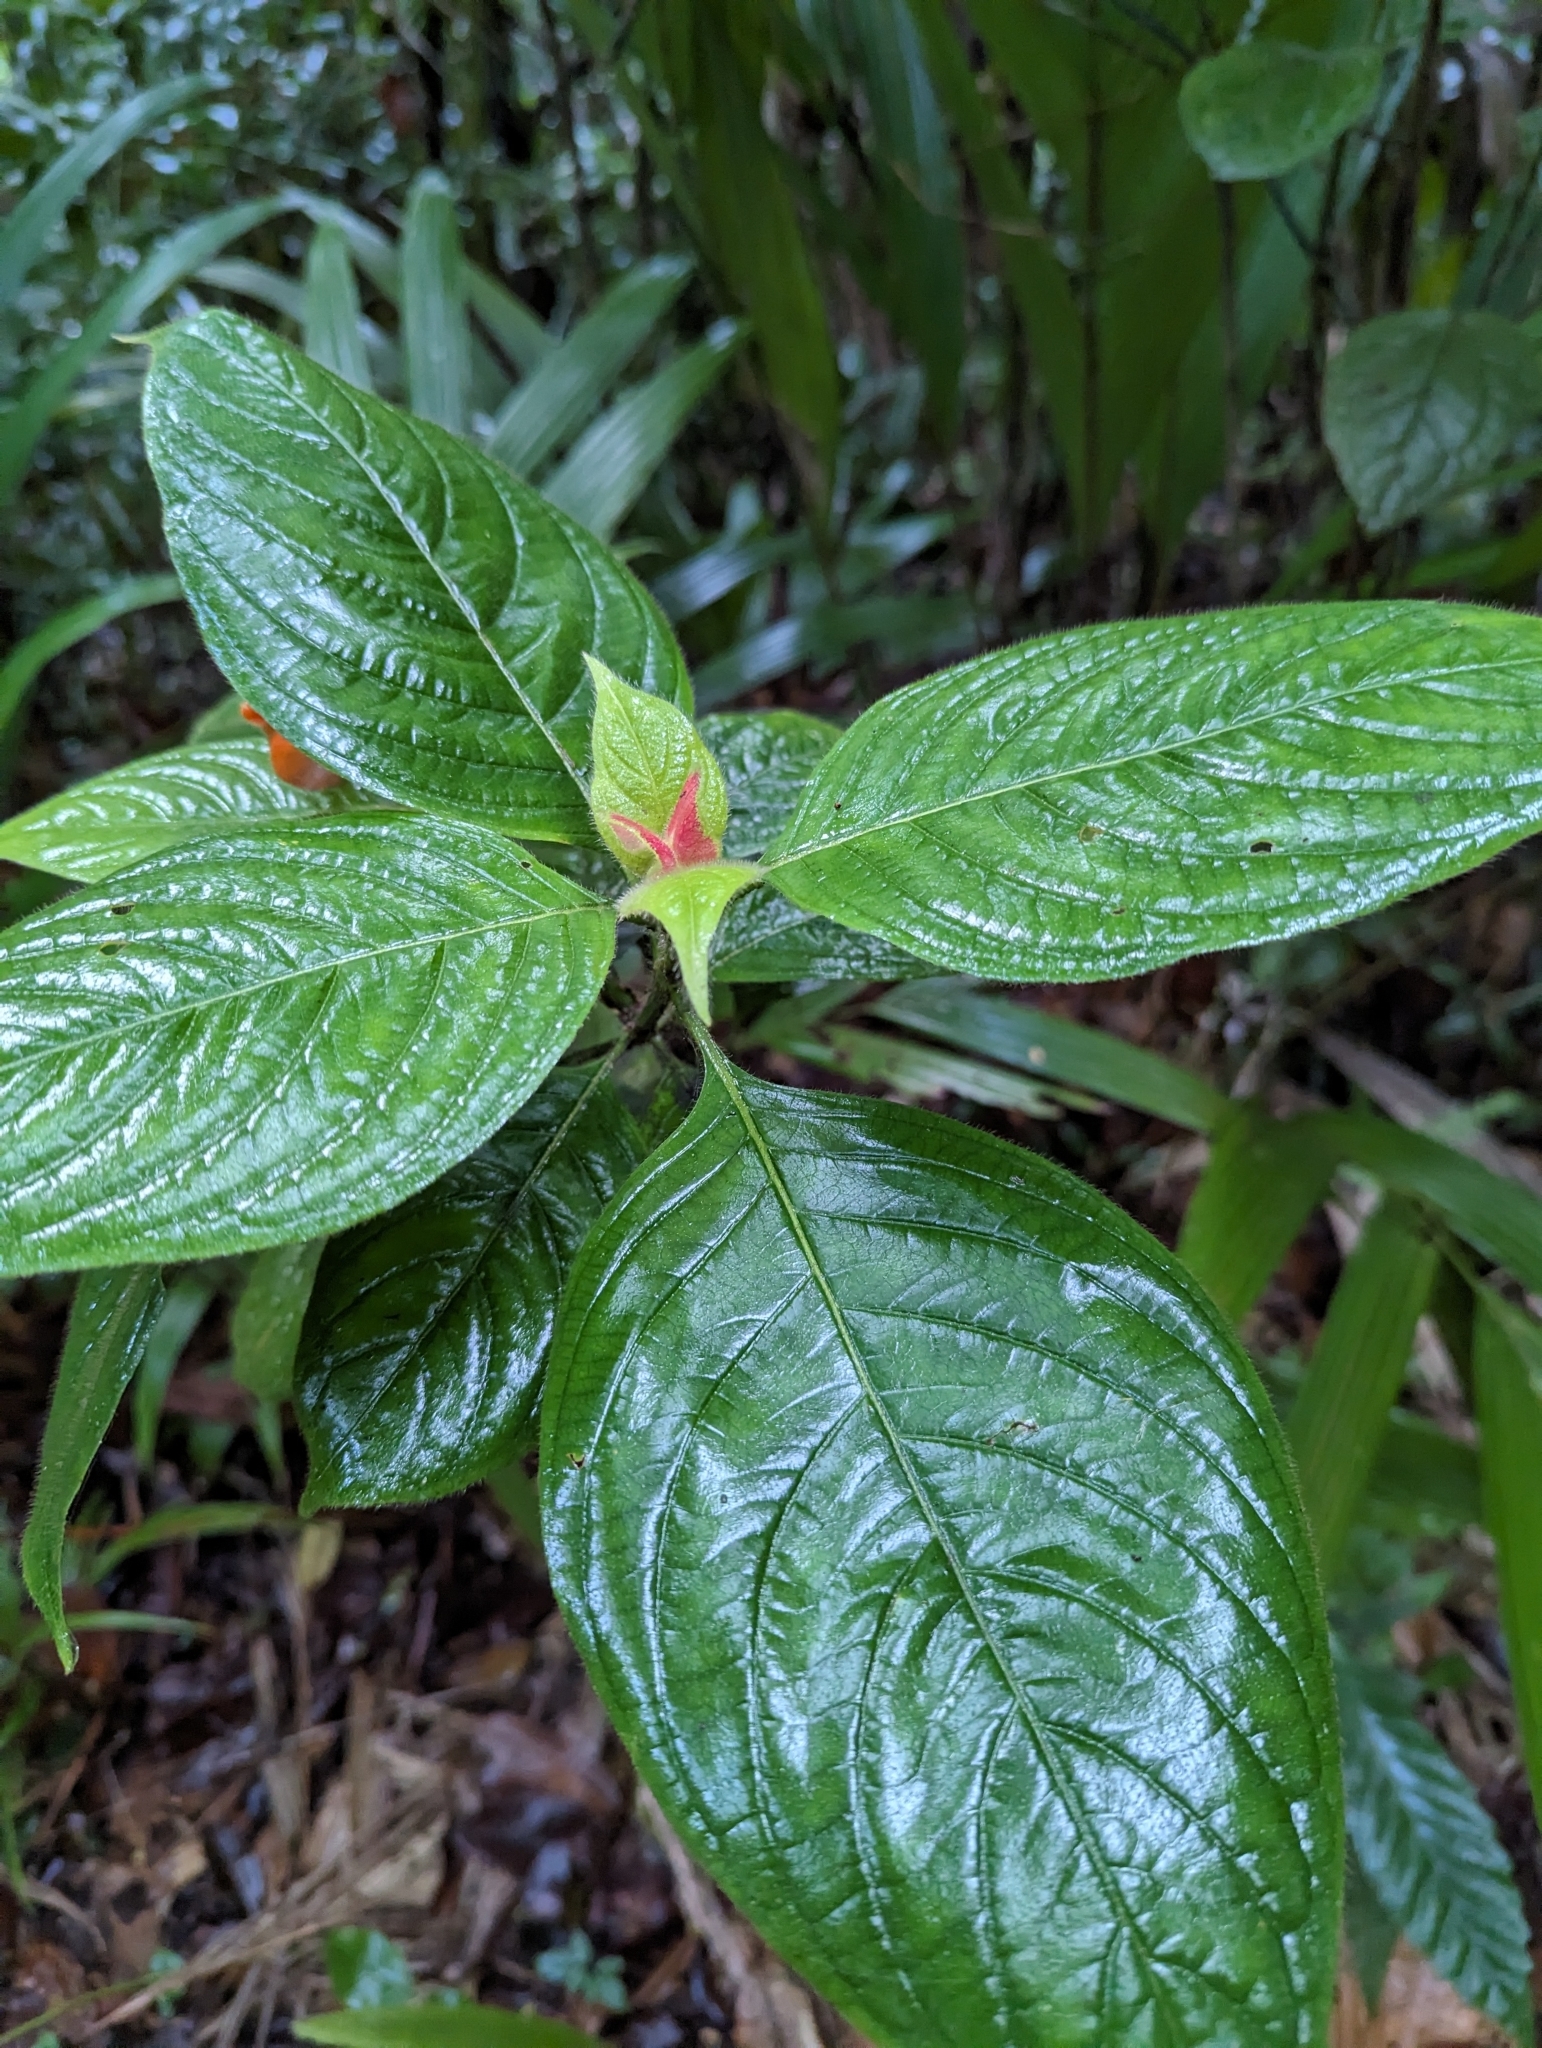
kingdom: Plantae
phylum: Tracheophyta
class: Magnoliopsida
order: Gentianales
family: Rubiaceae
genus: Palicourea
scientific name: Palicourea tomentosa
